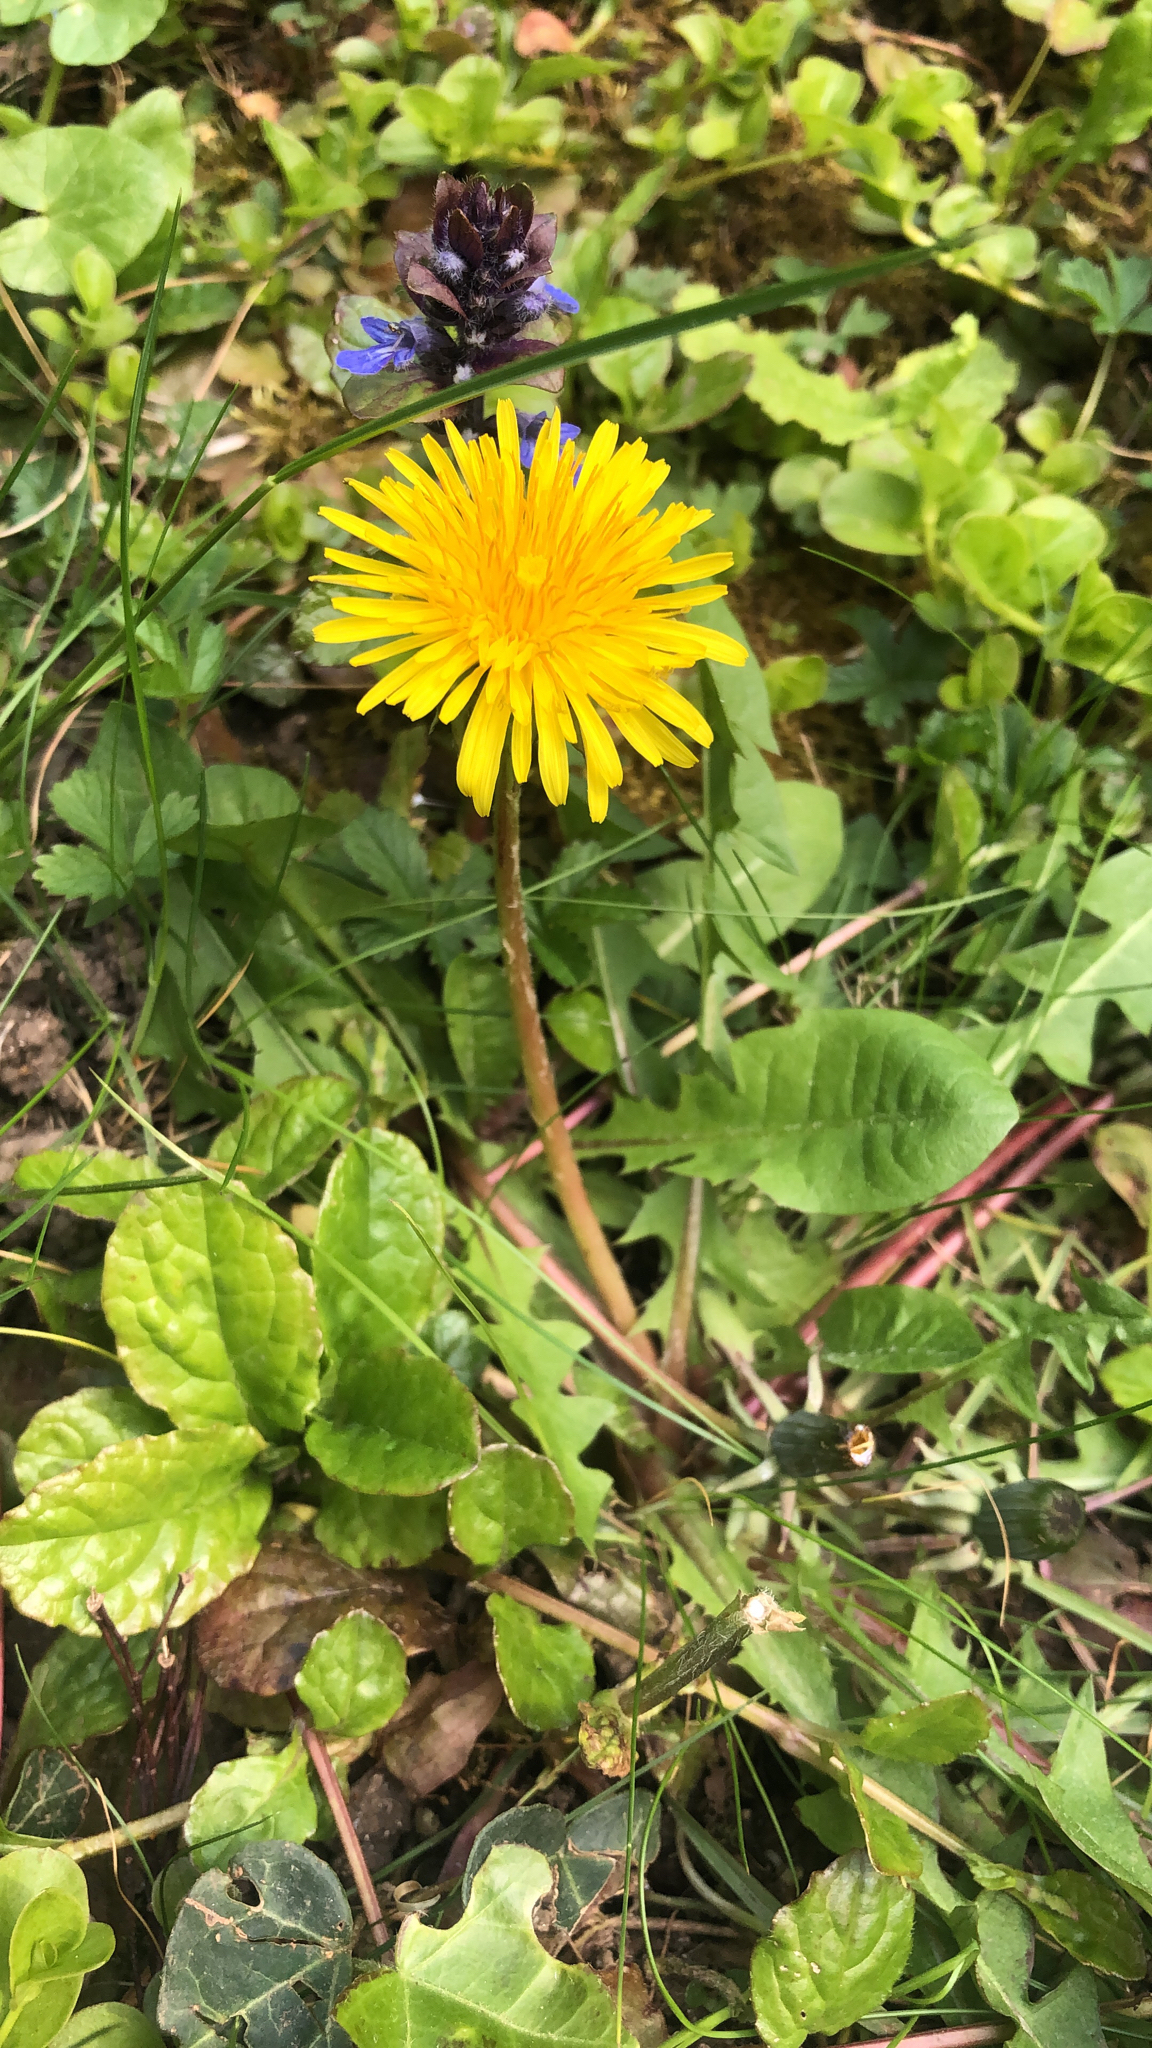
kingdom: Plantae
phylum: Tracheophyta
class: Magnoliopsida
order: Asterales
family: Asteraceae
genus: Taraxacum
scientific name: Taraxacum officinale
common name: Common dandelion
